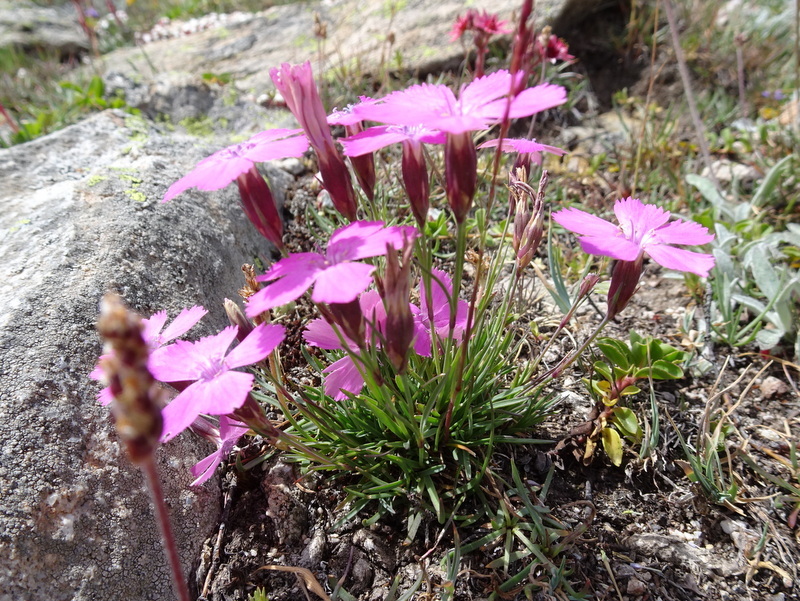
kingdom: Plantae
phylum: Tracheophyta
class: Magnoliopsida
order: Caryophyllales
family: Caryophyllaceae
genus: Dianthus
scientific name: Dianthus pavonius
